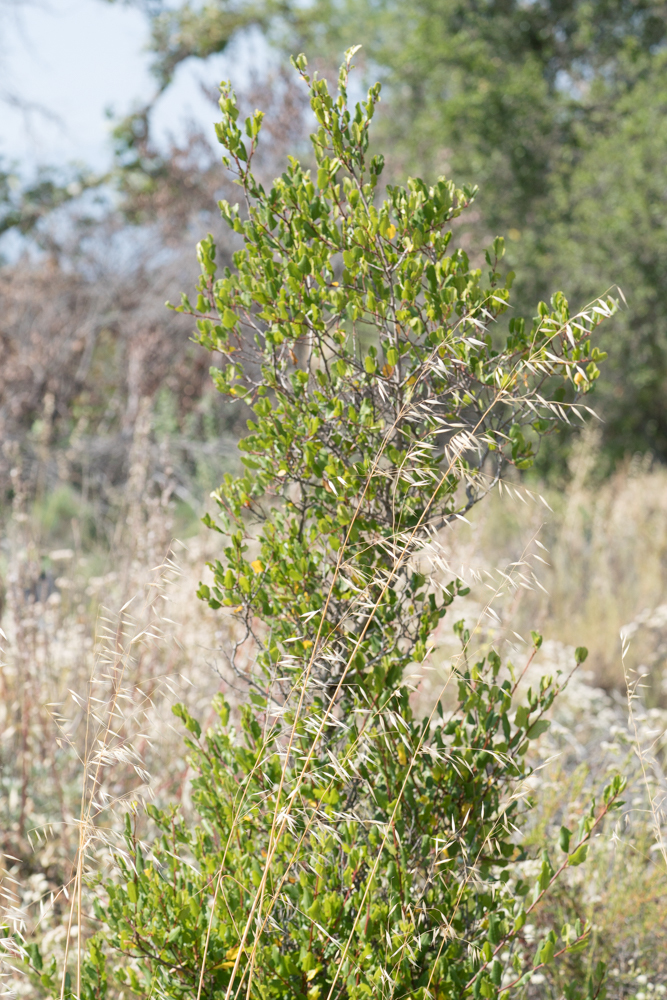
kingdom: Plantae
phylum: Tracheophyta
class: Magnoliopsida
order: Rosales
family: Rhamnaceae
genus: Endotropis
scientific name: Endotropis crocea
